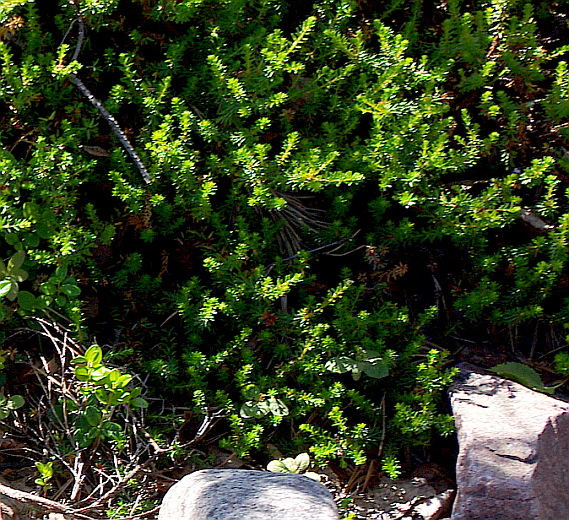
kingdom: Plantae
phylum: Tracheophyta
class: Magnoliopsida
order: Ericales
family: Ericaceae
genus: Empetrum
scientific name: Empetrum nigrum
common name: Black crowberry
